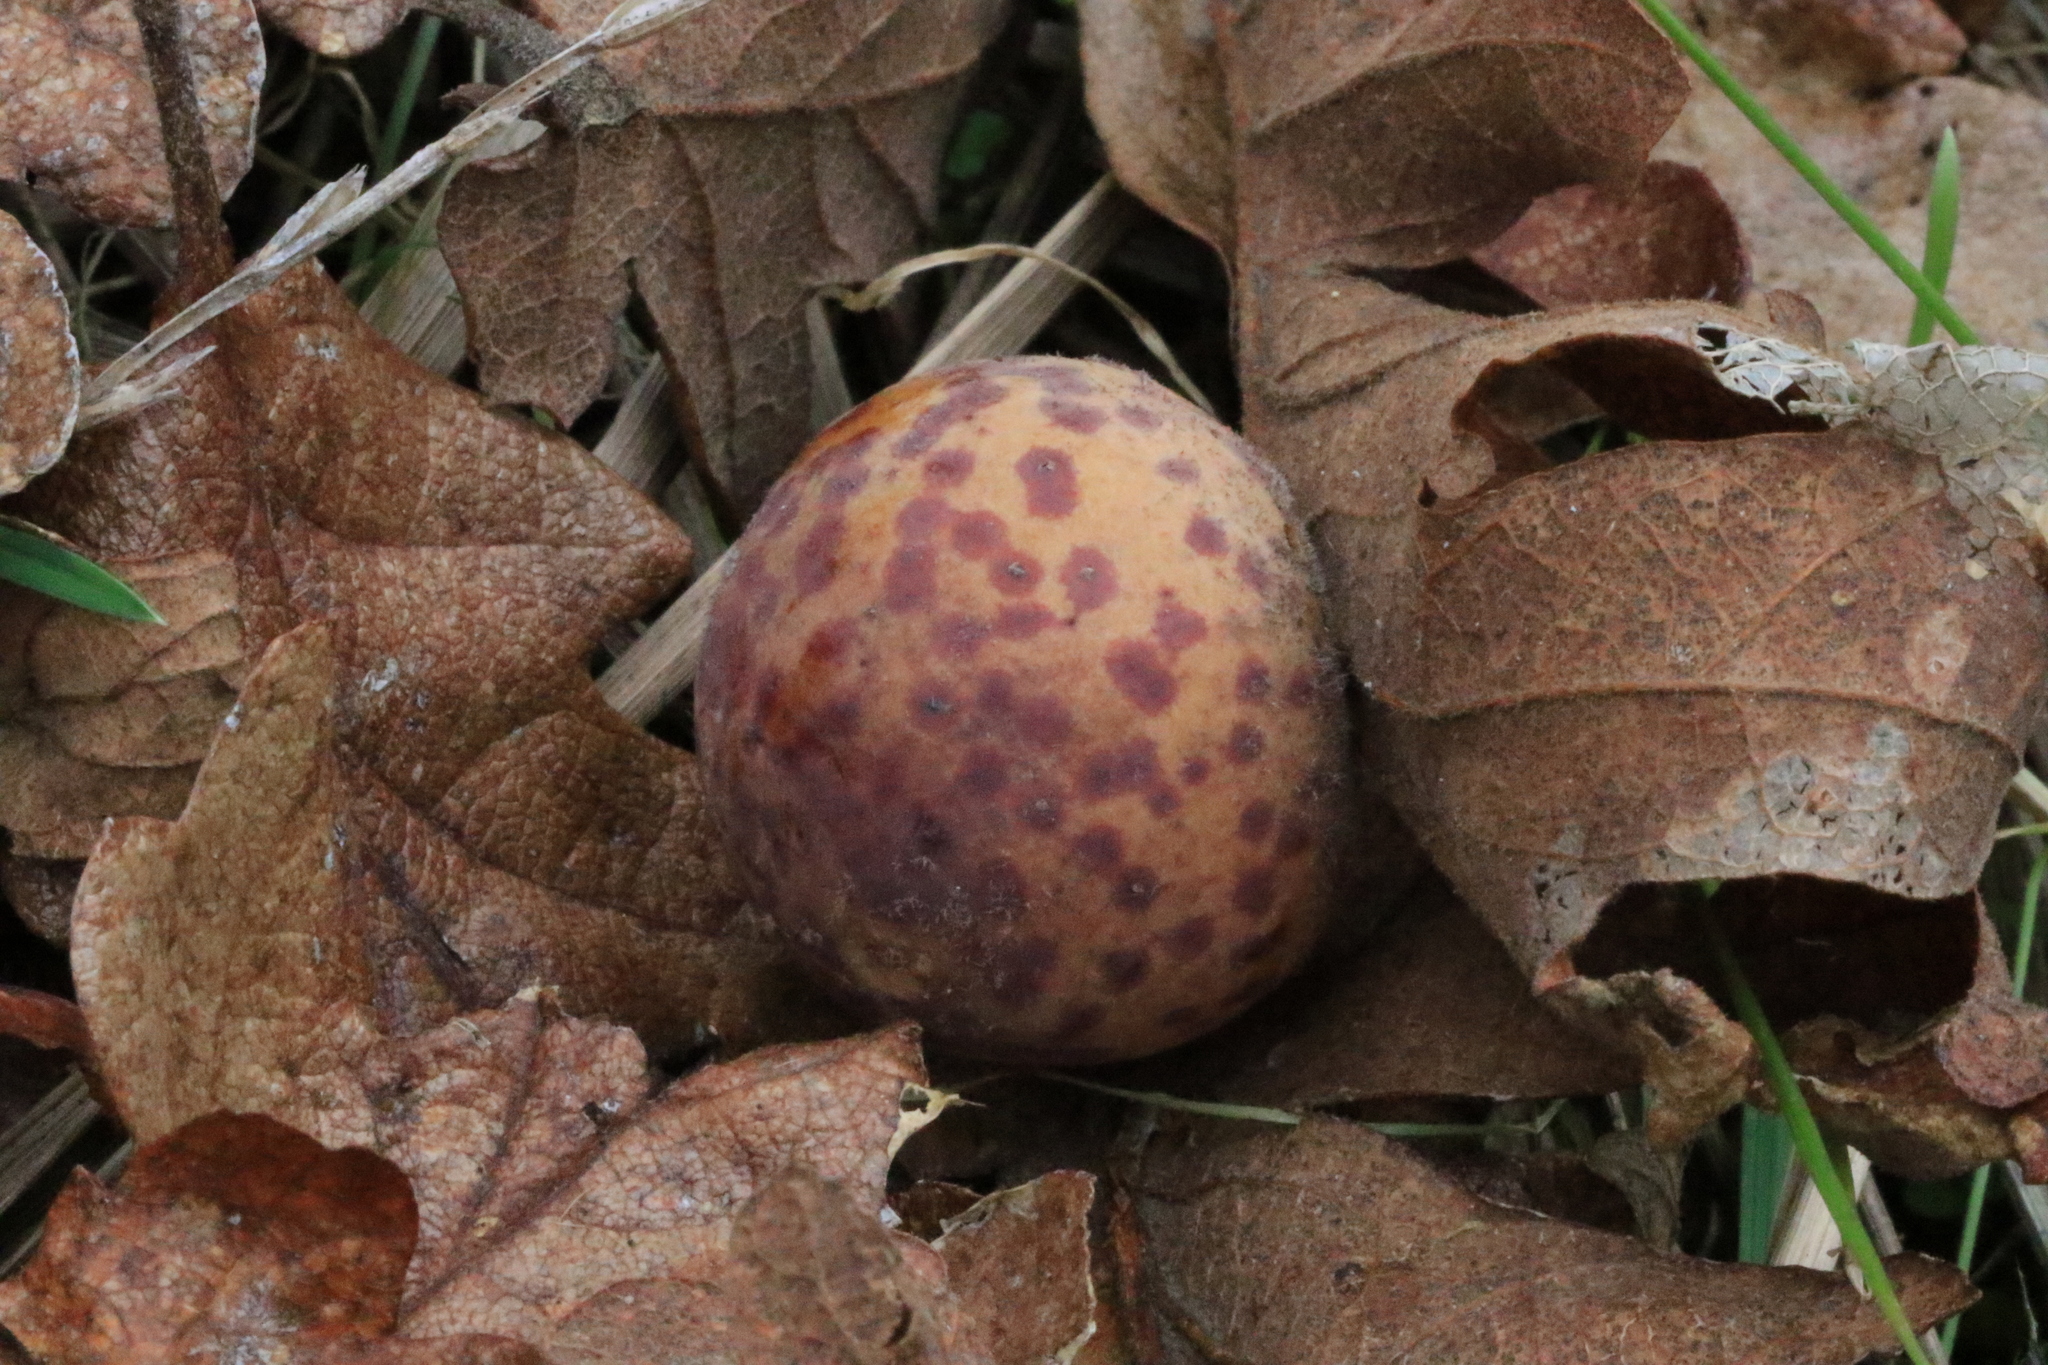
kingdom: Animalia
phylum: Arthropoda
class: Insecta
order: Hymenoptera
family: Cynipidae
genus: Cynips
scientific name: Cynips
